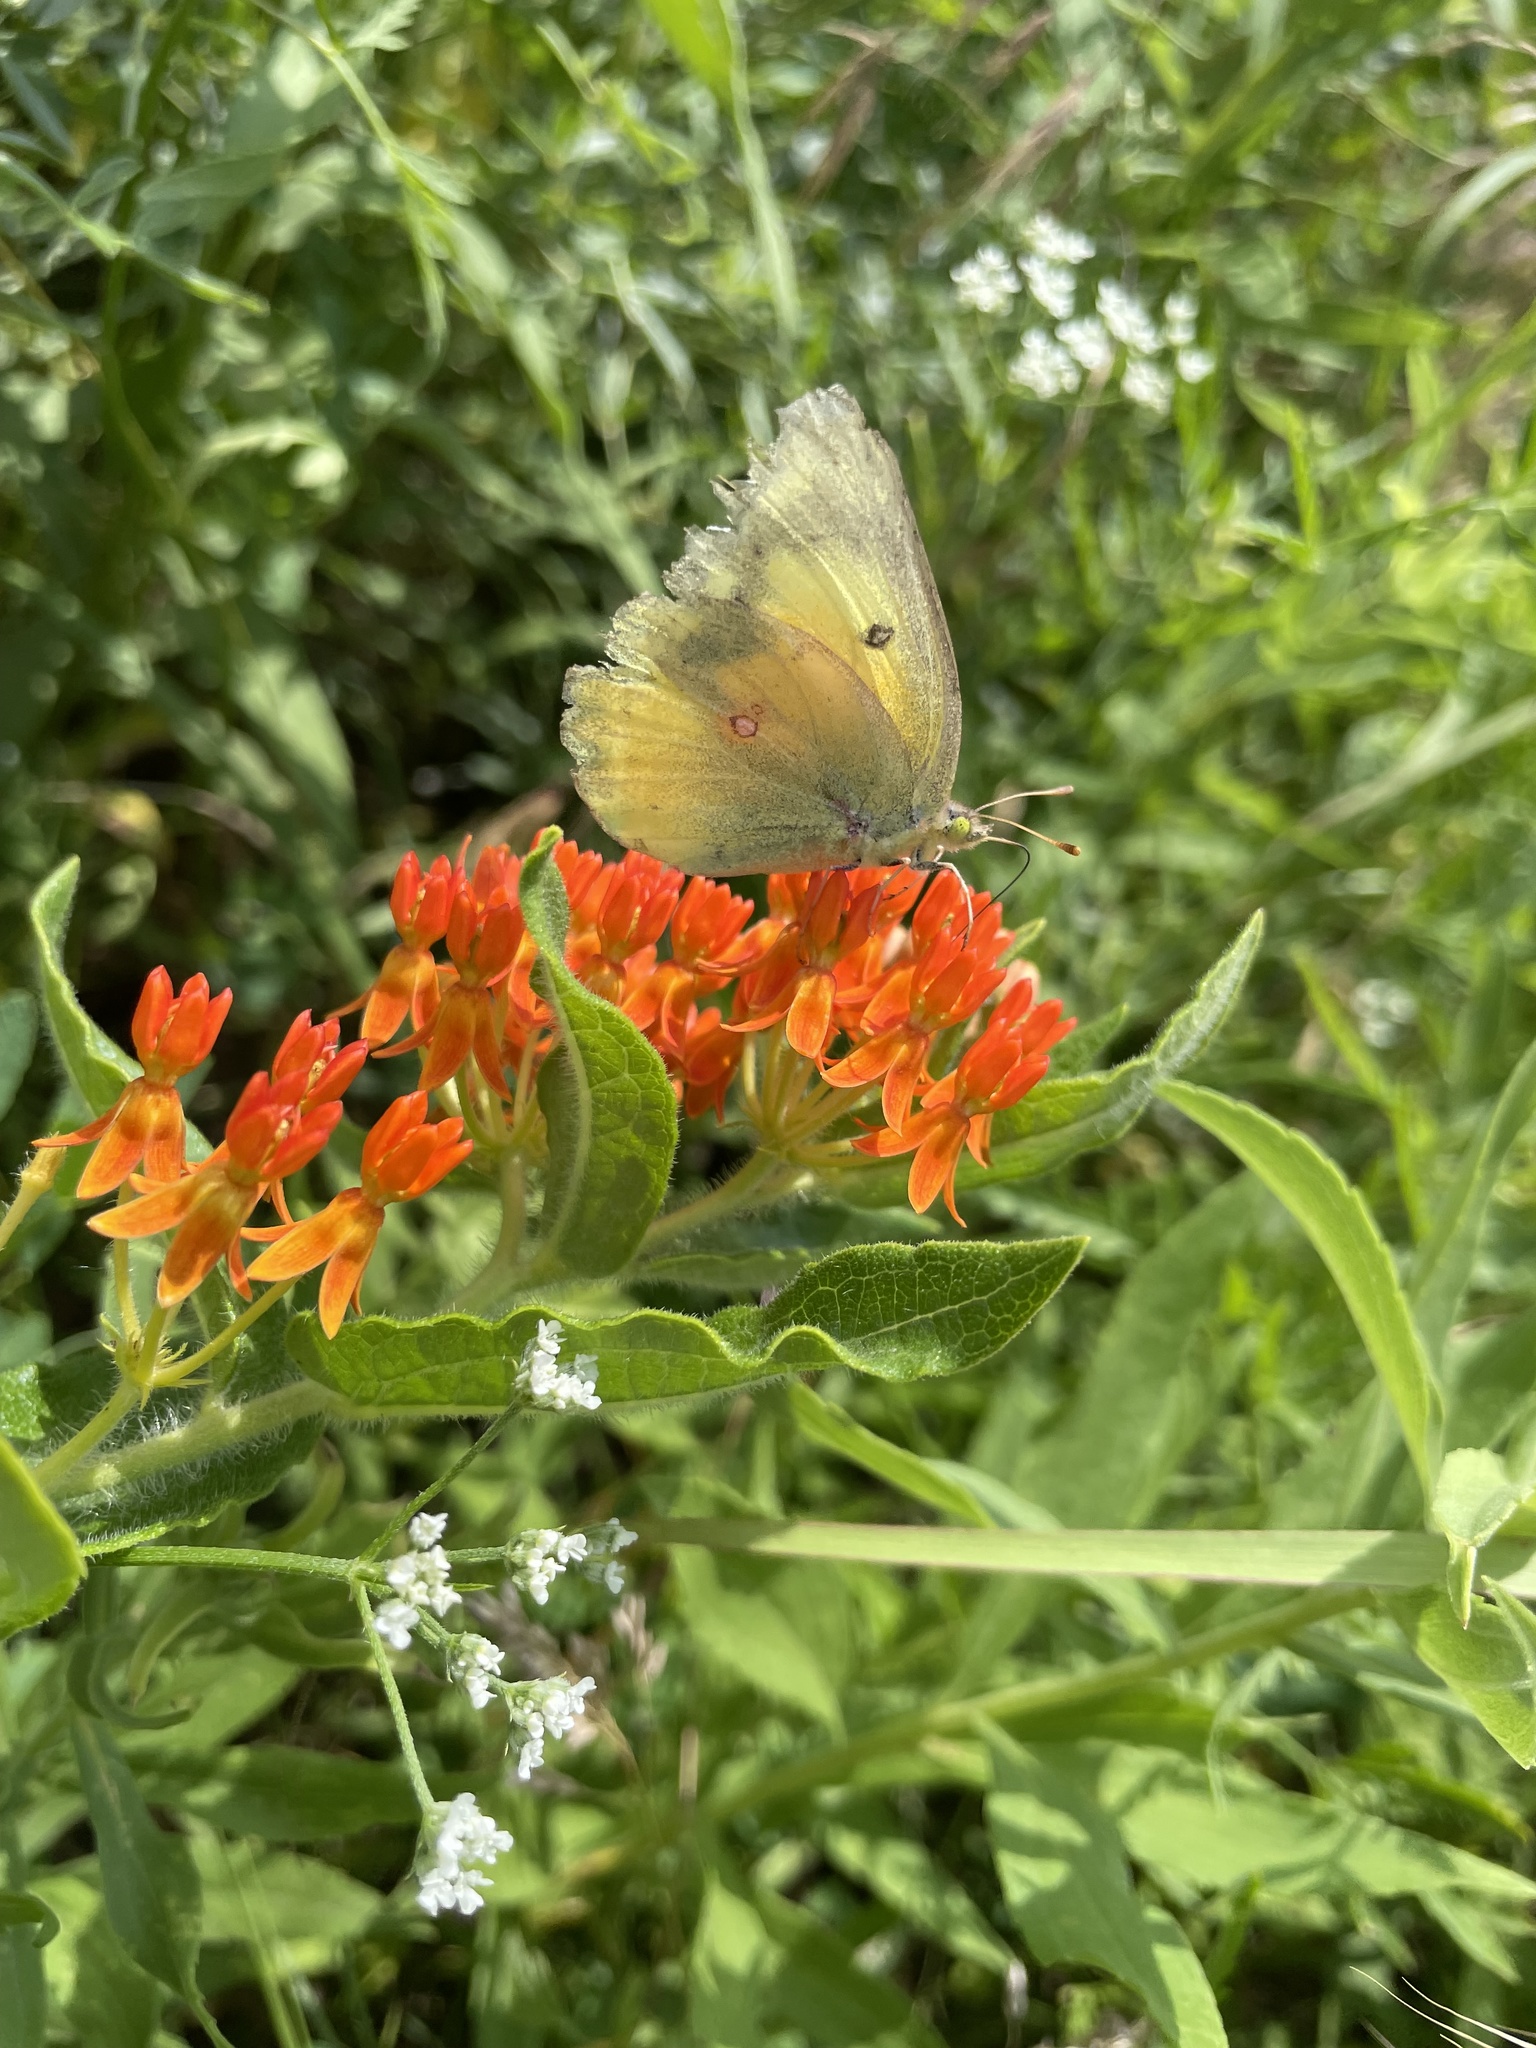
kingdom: Animalia
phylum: Arthropoda
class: Insecta
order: Lepidoptera
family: Pieridae
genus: Colias
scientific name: Colias eurytheme
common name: Alfalfa butterfly
